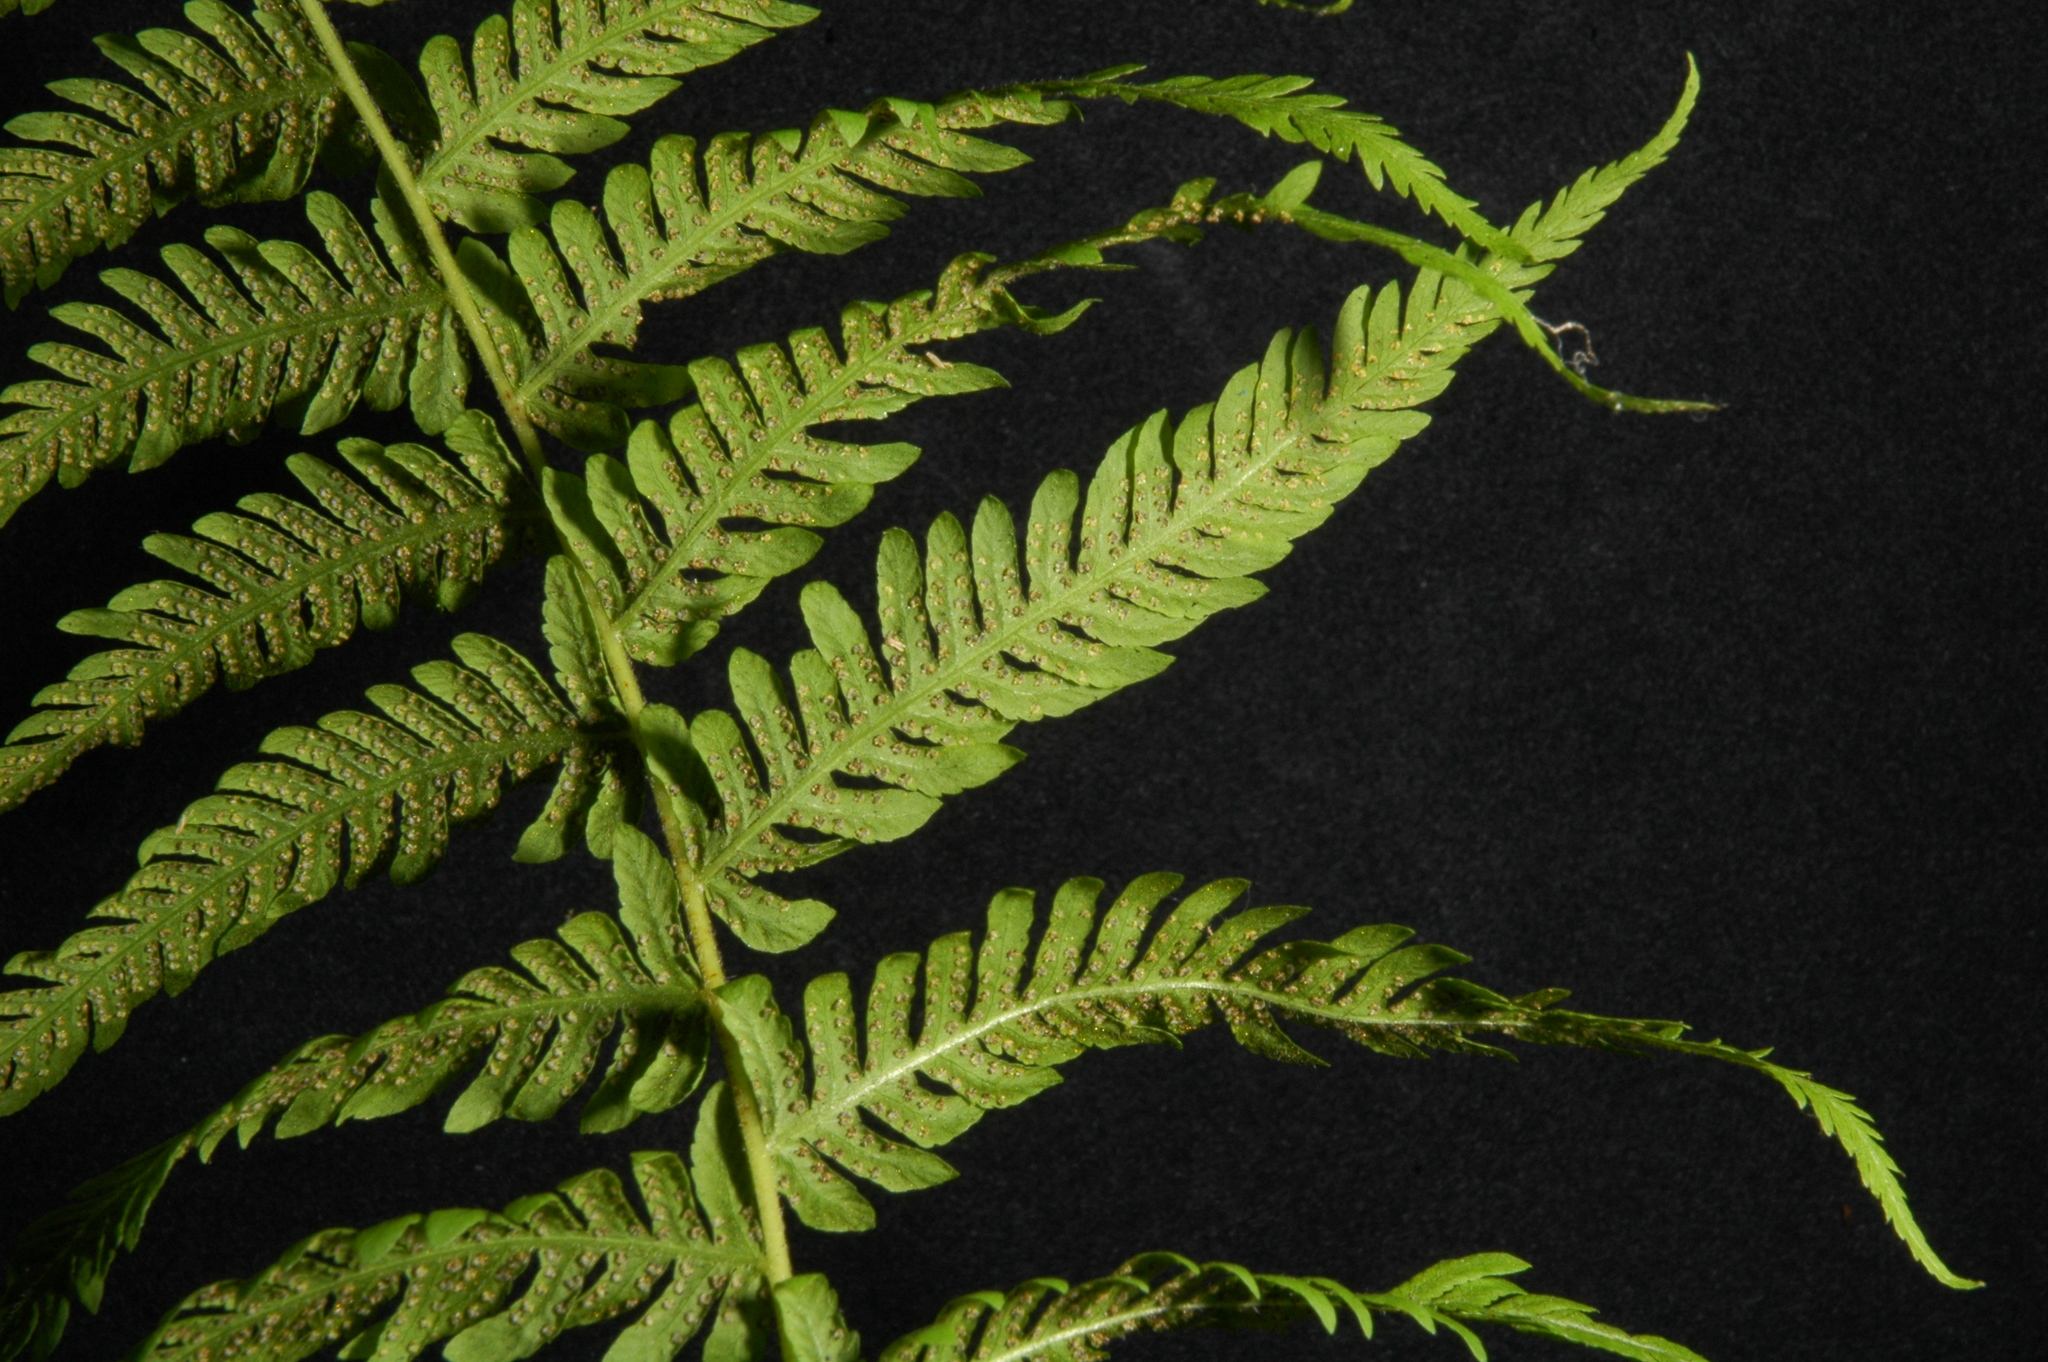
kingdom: Plantae
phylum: Tracheophyta
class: Polypodiopsida
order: Polypodiales
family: Thelypteridaceae
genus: Amauropelta
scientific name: Amauropelta nevadensis
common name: Nevada marsh fern
